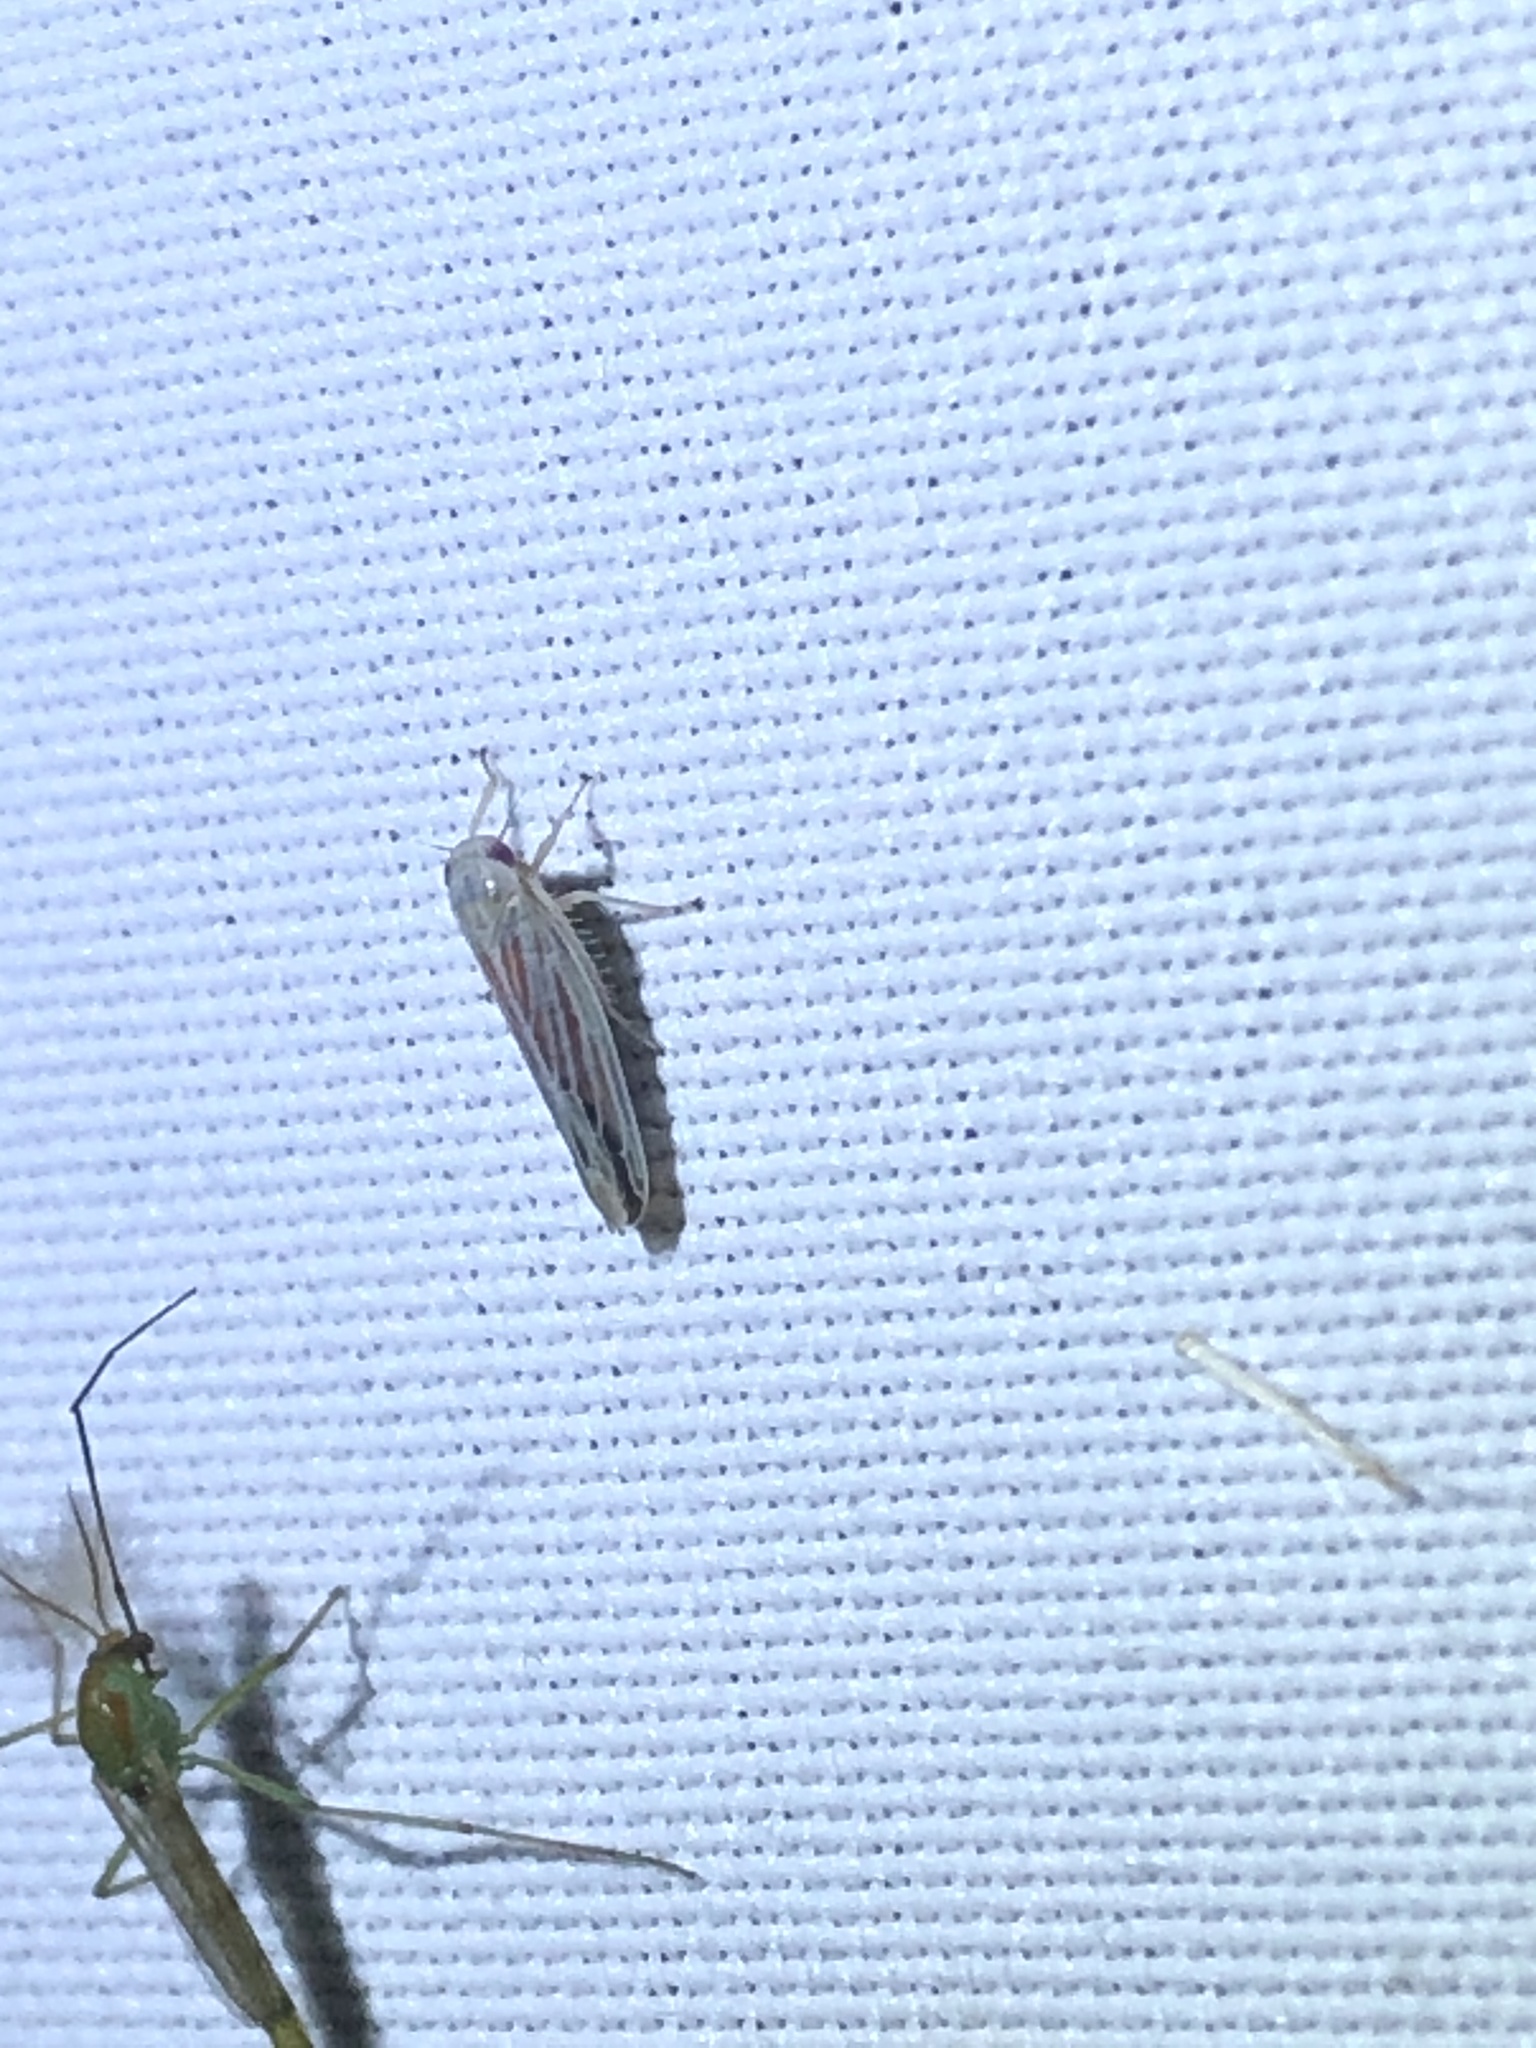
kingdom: Animalia
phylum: Arthropoda
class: Insecta
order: Hemiptera
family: Cicadellidae
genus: Balclutha
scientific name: Balclutha rubrostriata
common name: Red-streaked leafhopper
